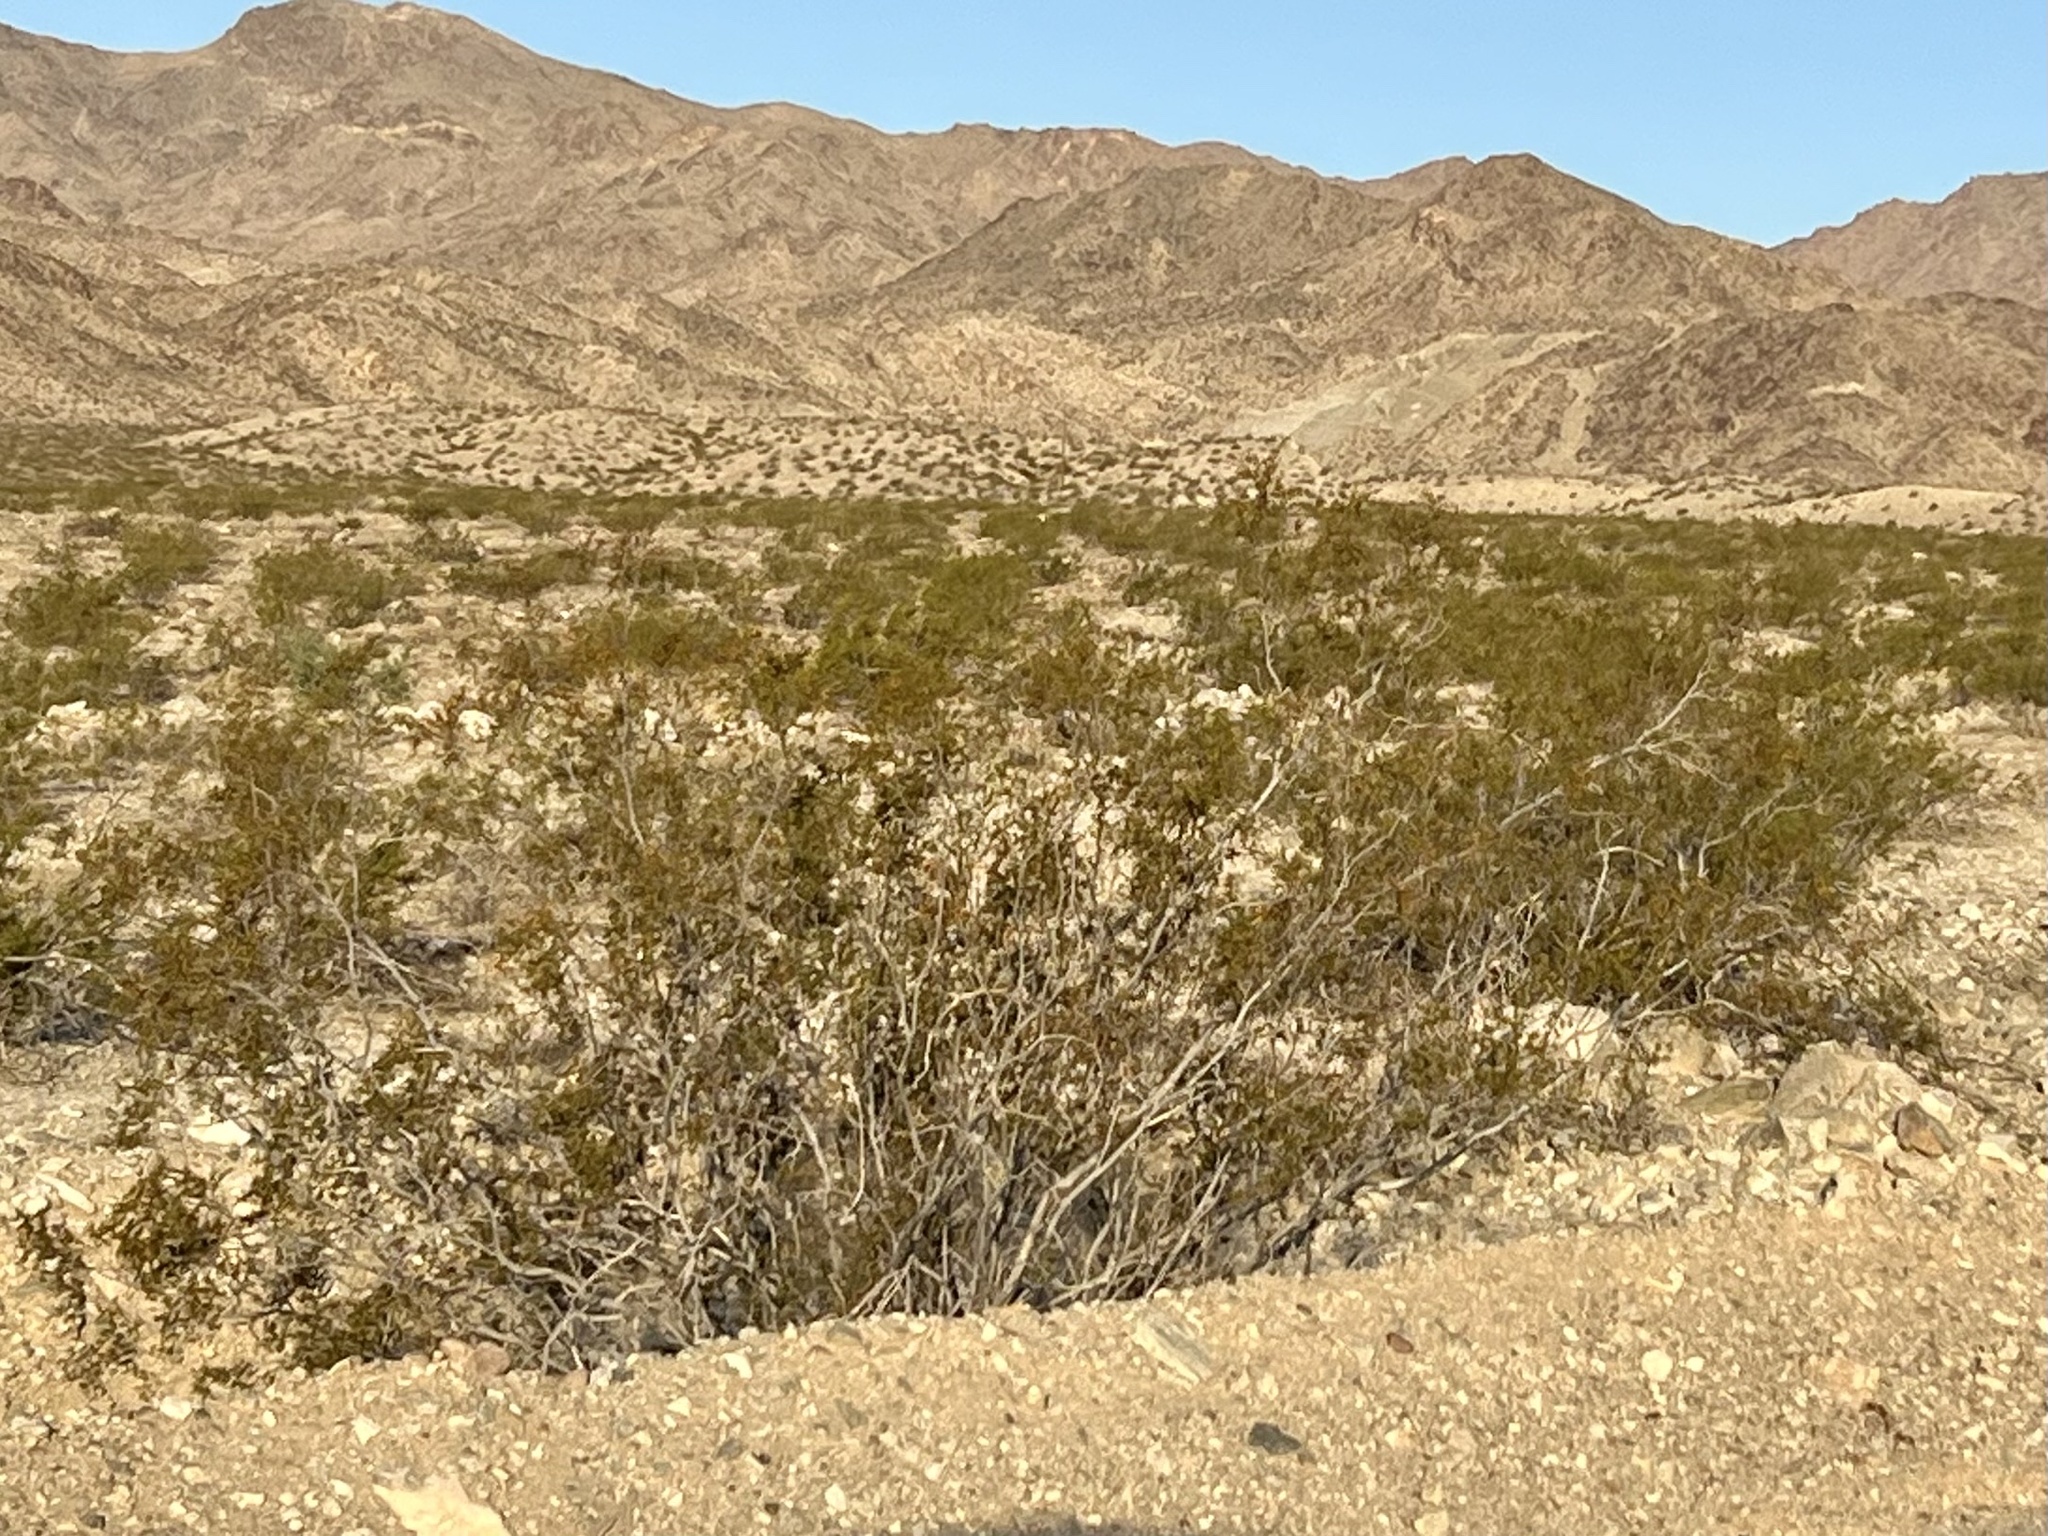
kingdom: Plantae
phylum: Tracheophyta
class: Magnoliopsida
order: Zygophyllales
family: Zygophyllaceae
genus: Larrea
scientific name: Larrea tridentata
